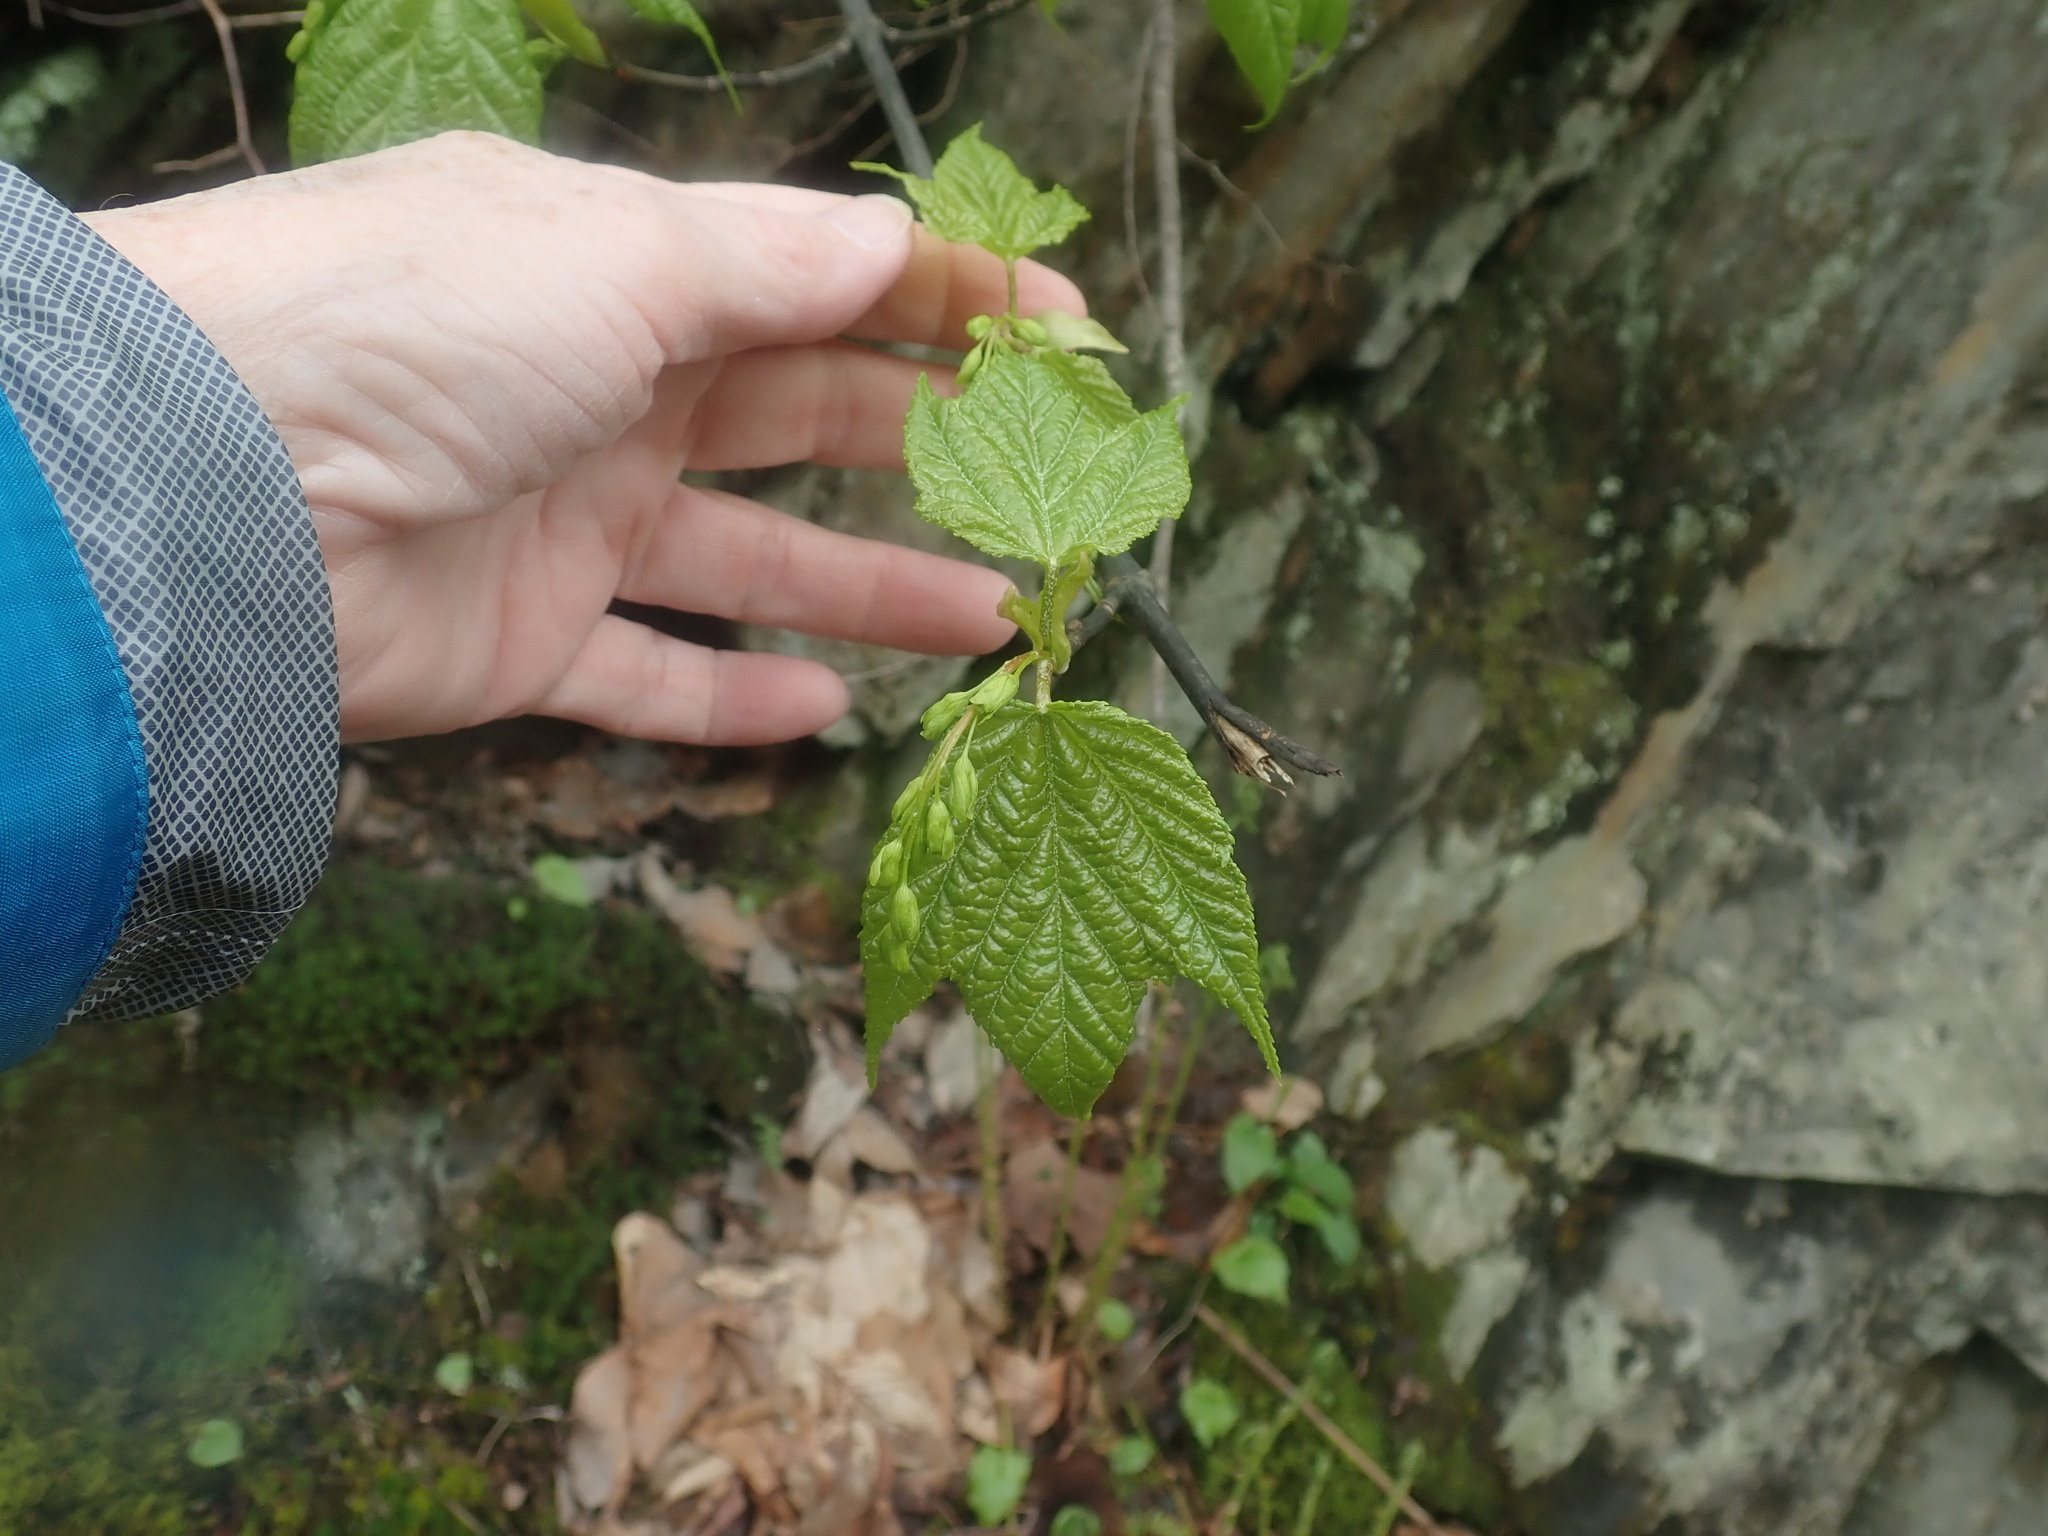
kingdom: Plantae
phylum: Tracheophyta
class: Magnoliopsida
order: Sapindales
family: Sapindaceae
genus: Acer
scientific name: Acer pensylvanicum
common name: Moosewood
